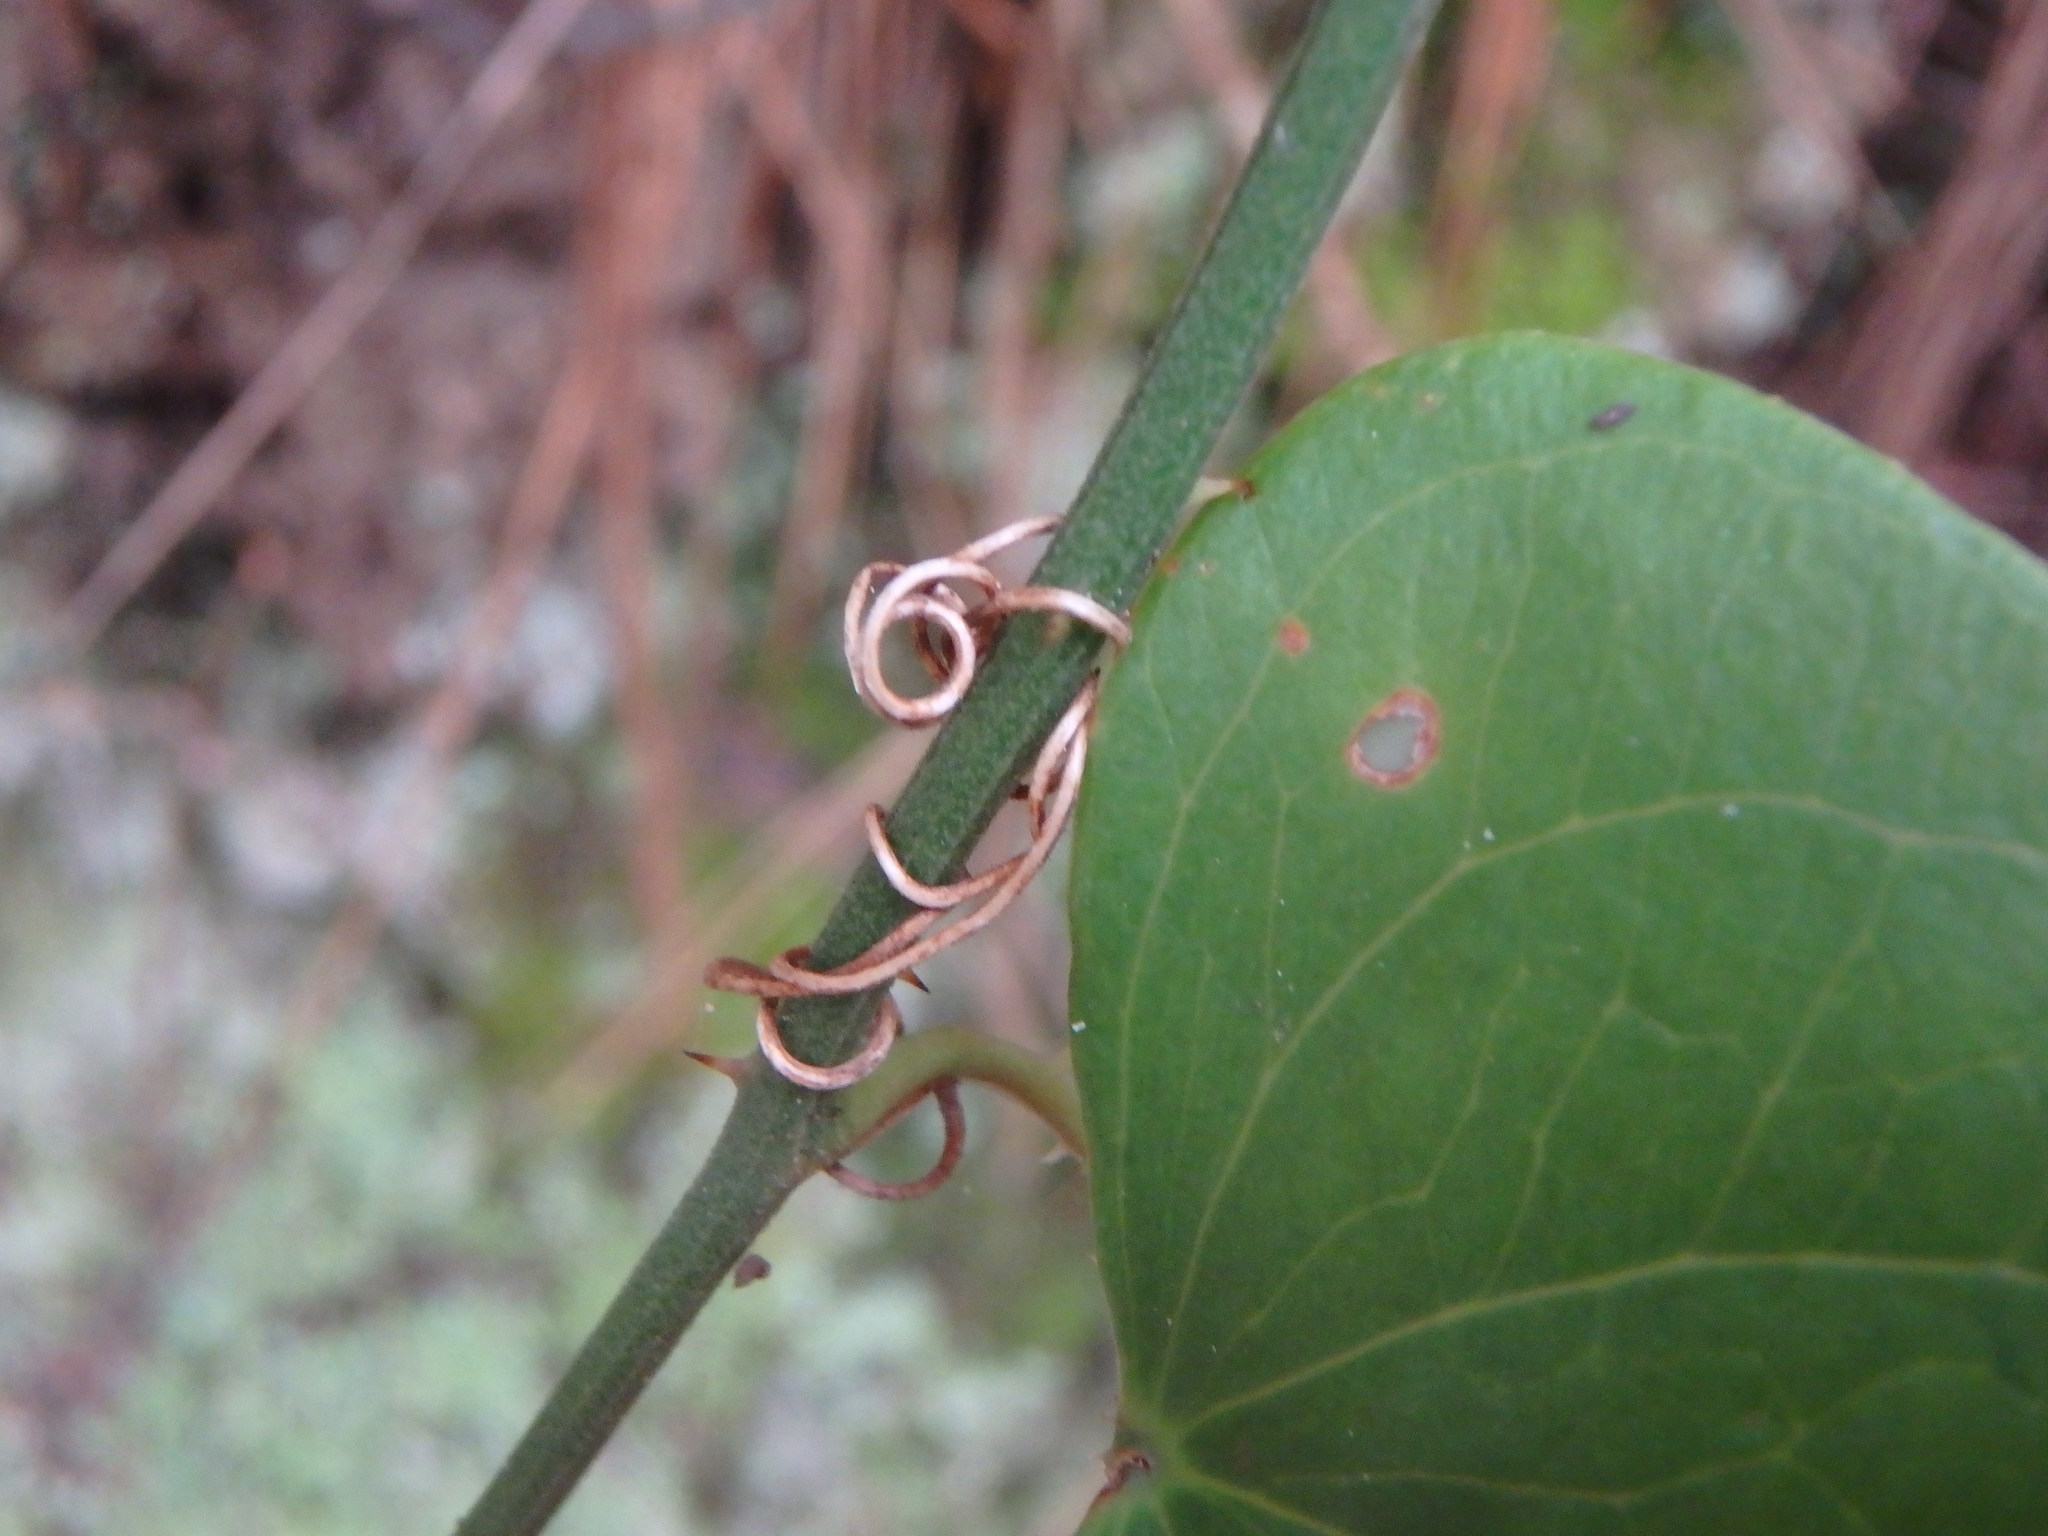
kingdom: Plantae
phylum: Tracheophyta
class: Liliopsida
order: Liliales
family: Smilacaceae
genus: Smilax
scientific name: Smilax aspera
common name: Common smilax
